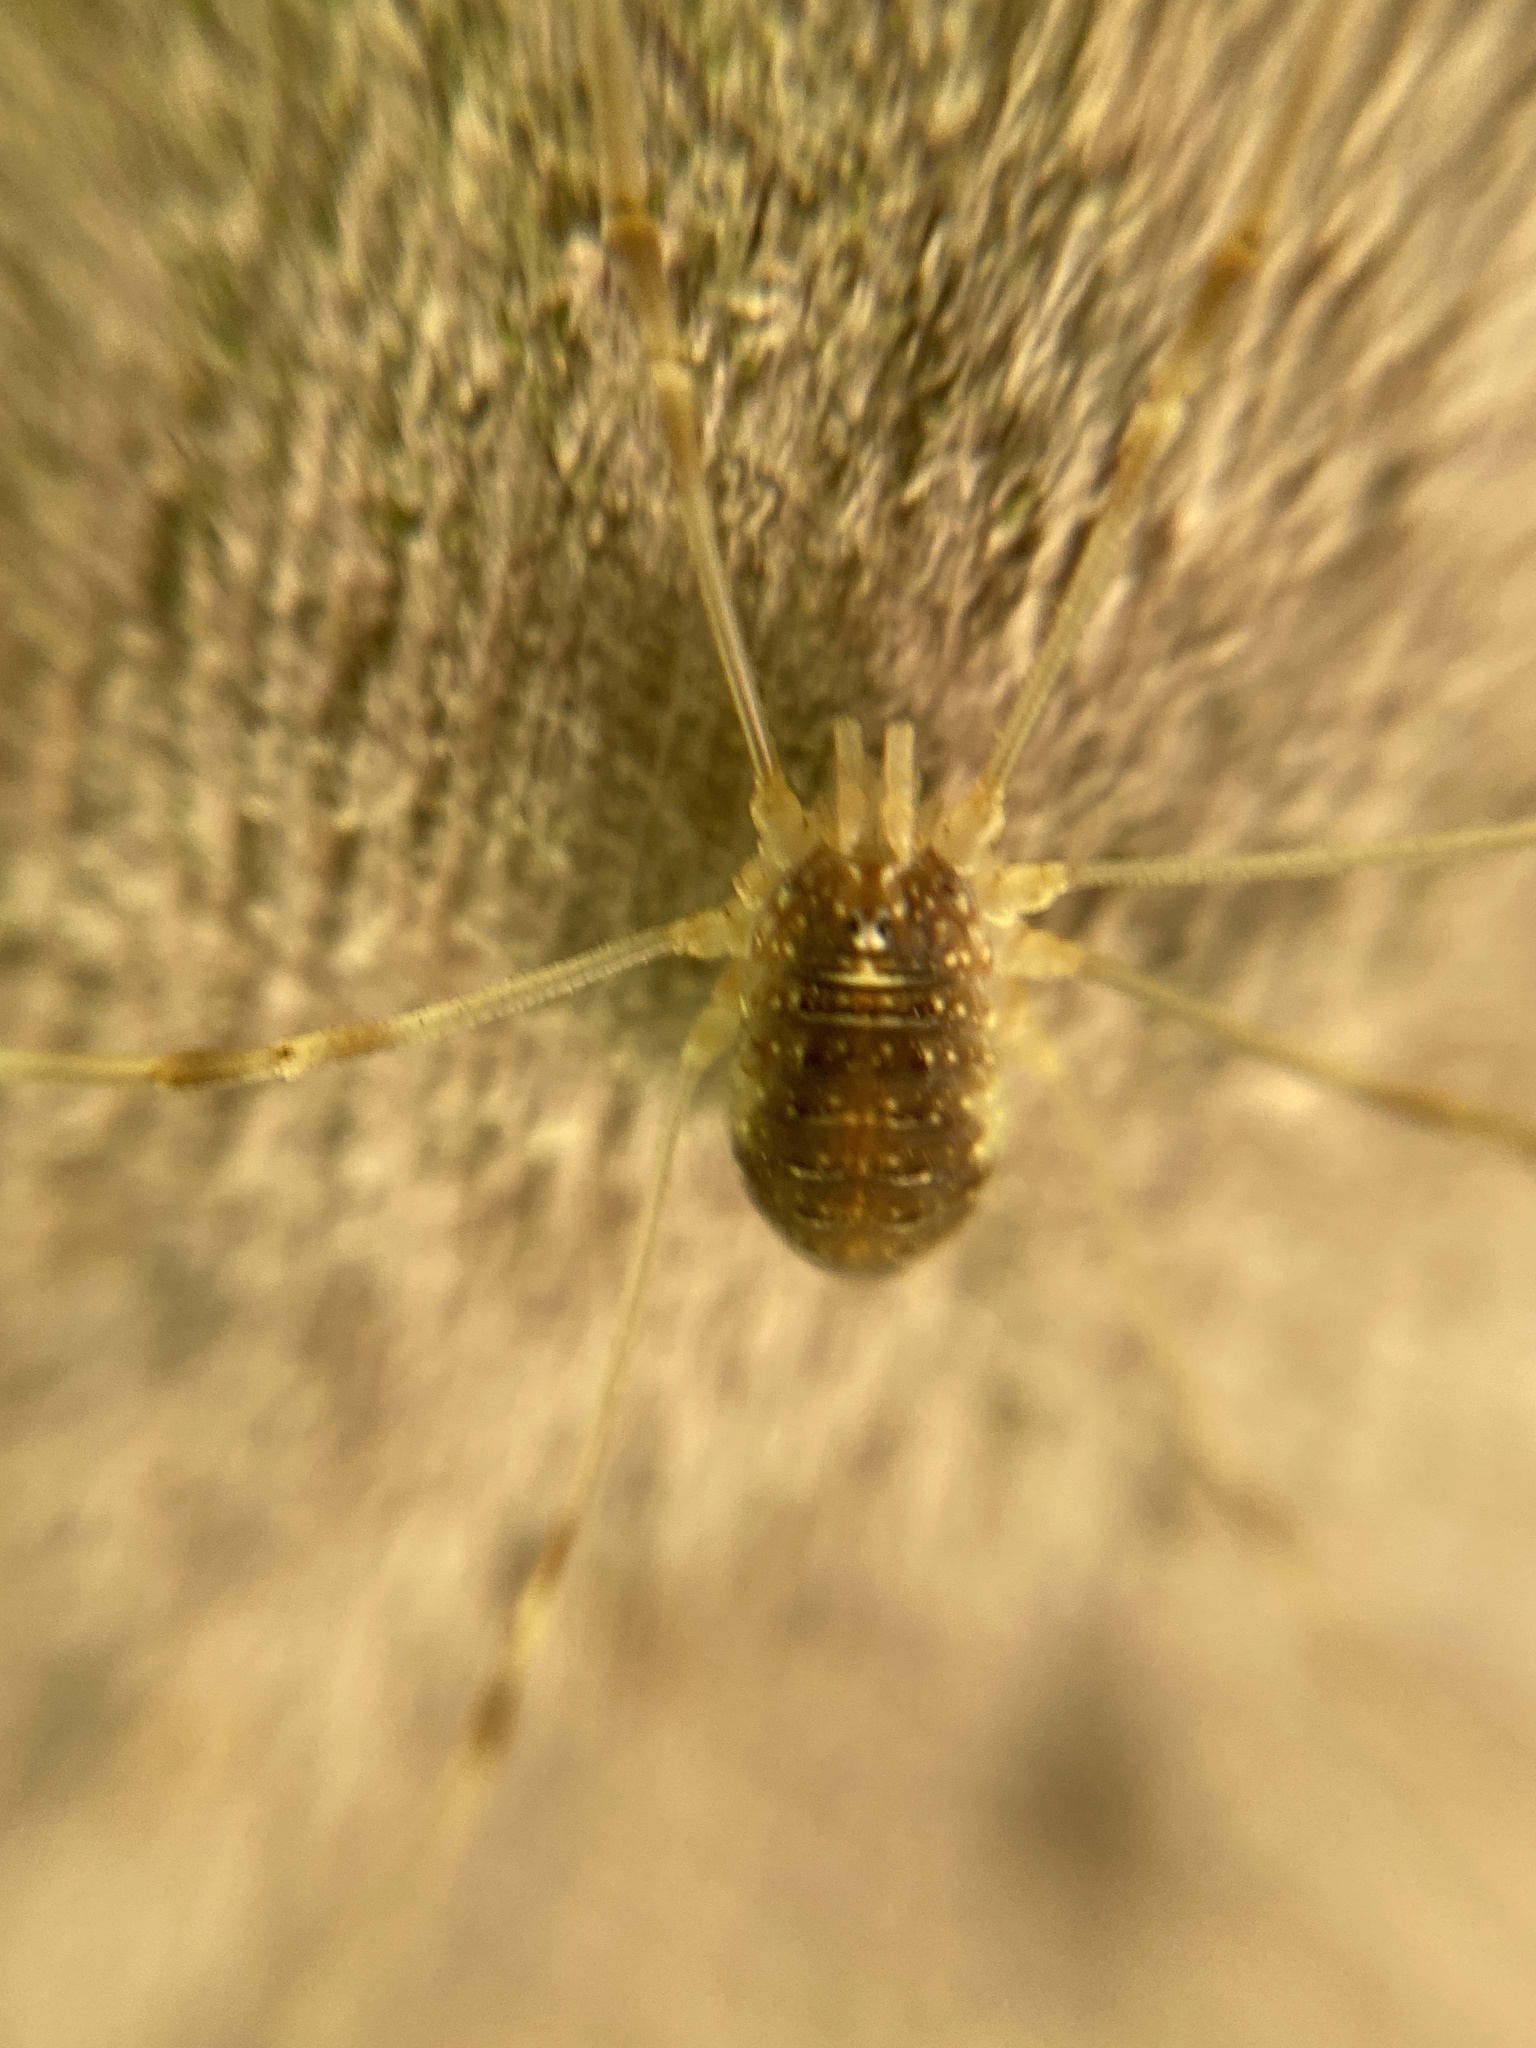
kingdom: Animalia
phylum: Arthropoda
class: Arachnida
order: Opiliones
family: Phalangiidae
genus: Opilio
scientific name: Opilio canestrinii
